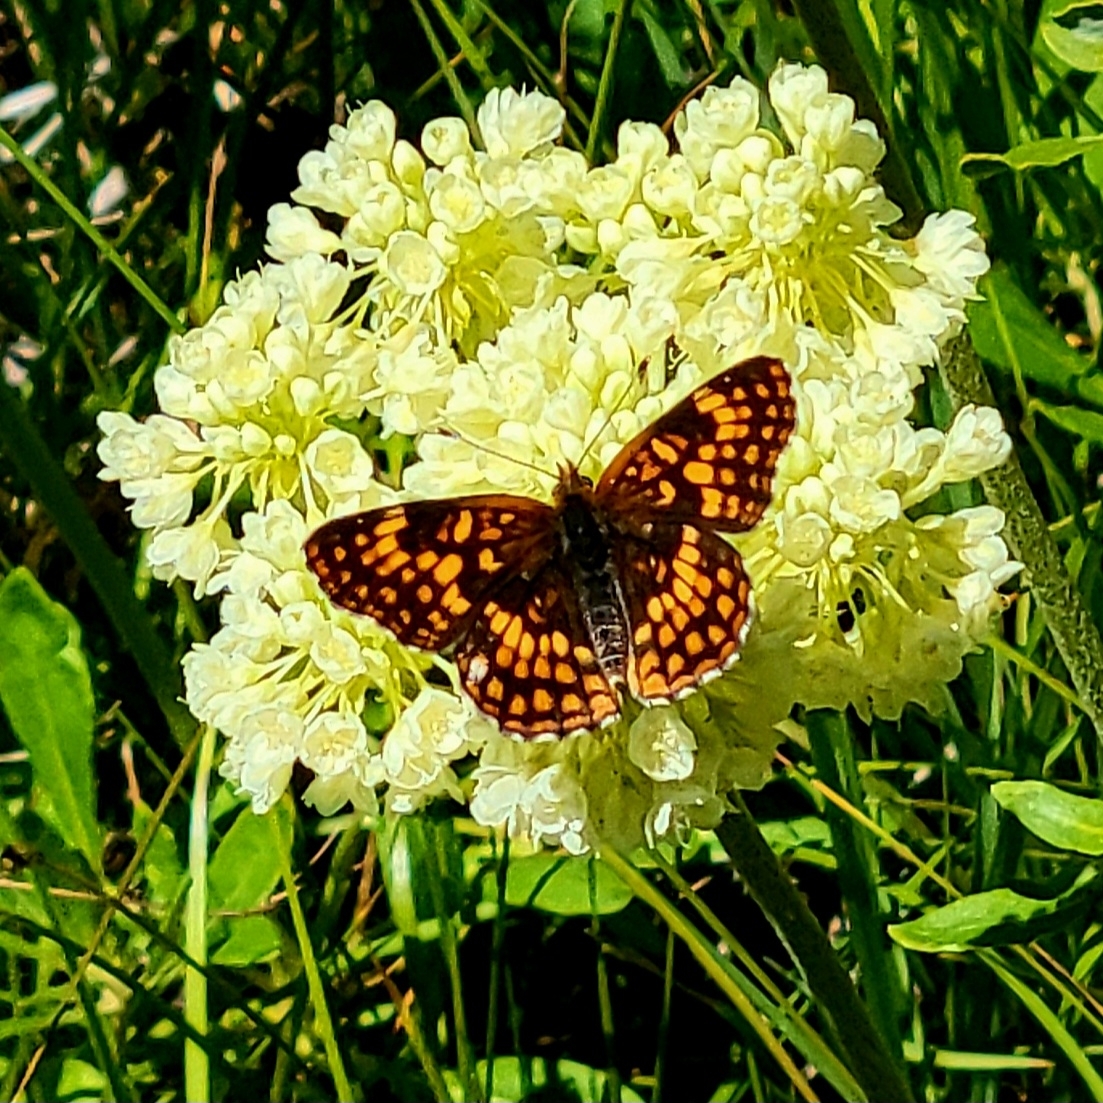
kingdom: Animalia
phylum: Arthropoda
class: Insecta
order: Lepidoptera
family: Nymphalidae
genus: Chlosyne
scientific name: Chlosyne palla
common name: Northern checkerspot
